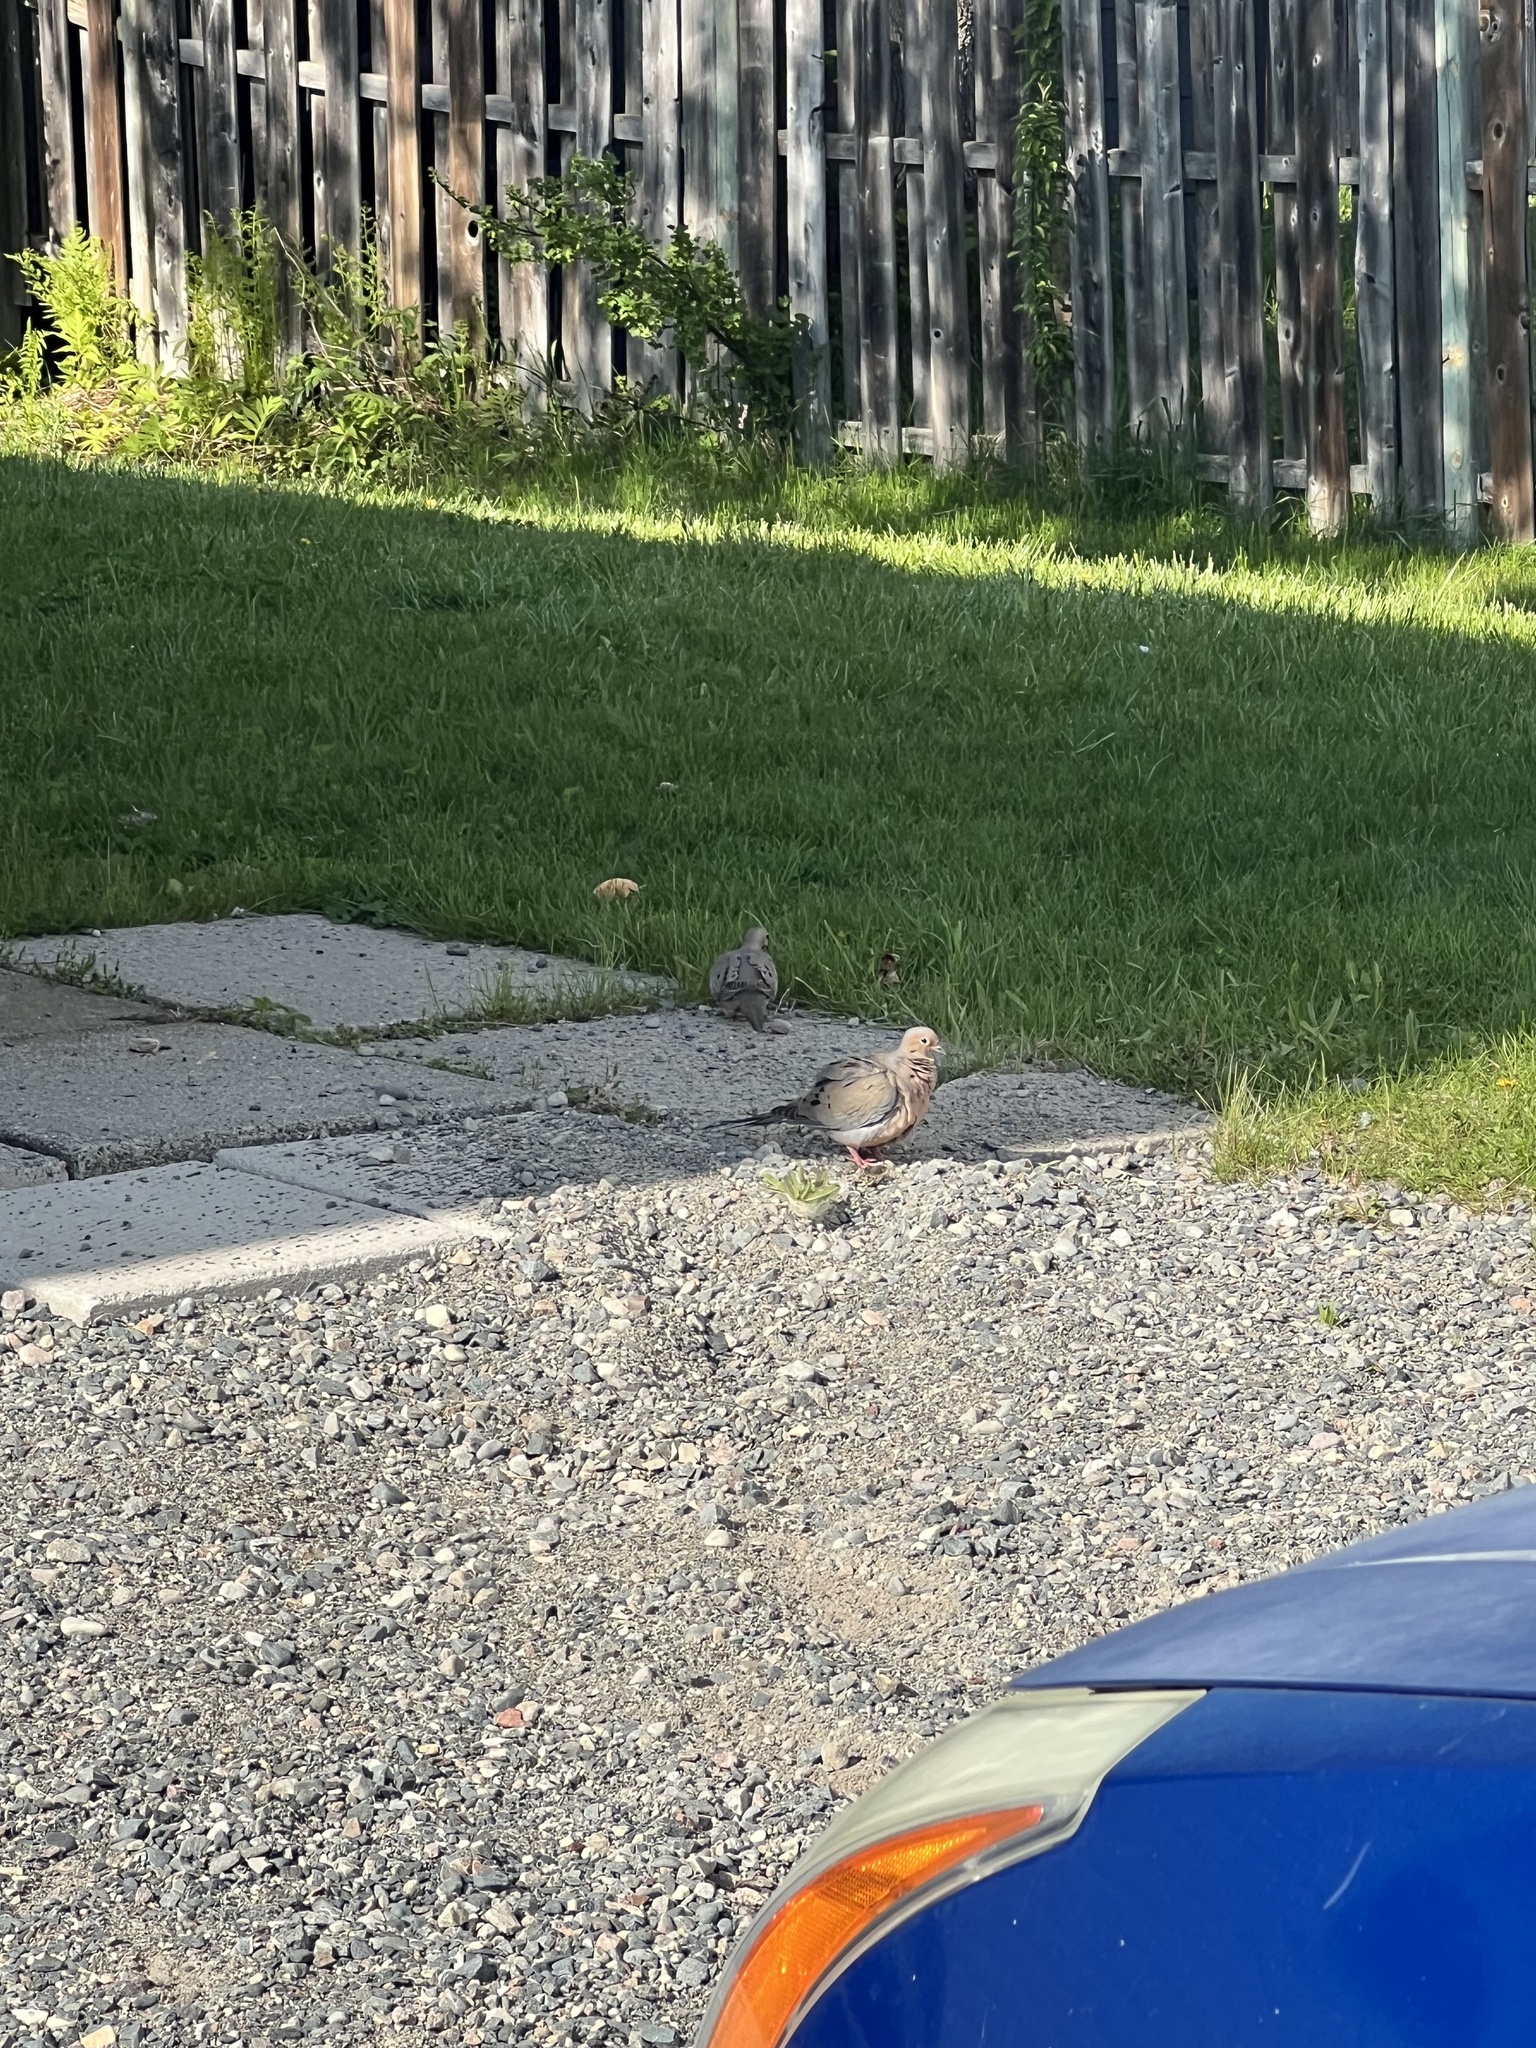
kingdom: Animalia
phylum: Chordata
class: Aves
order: Columbiformes
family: Columbidae
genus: Zenaida
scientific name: Zenaida macroura
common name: Mourning dove
